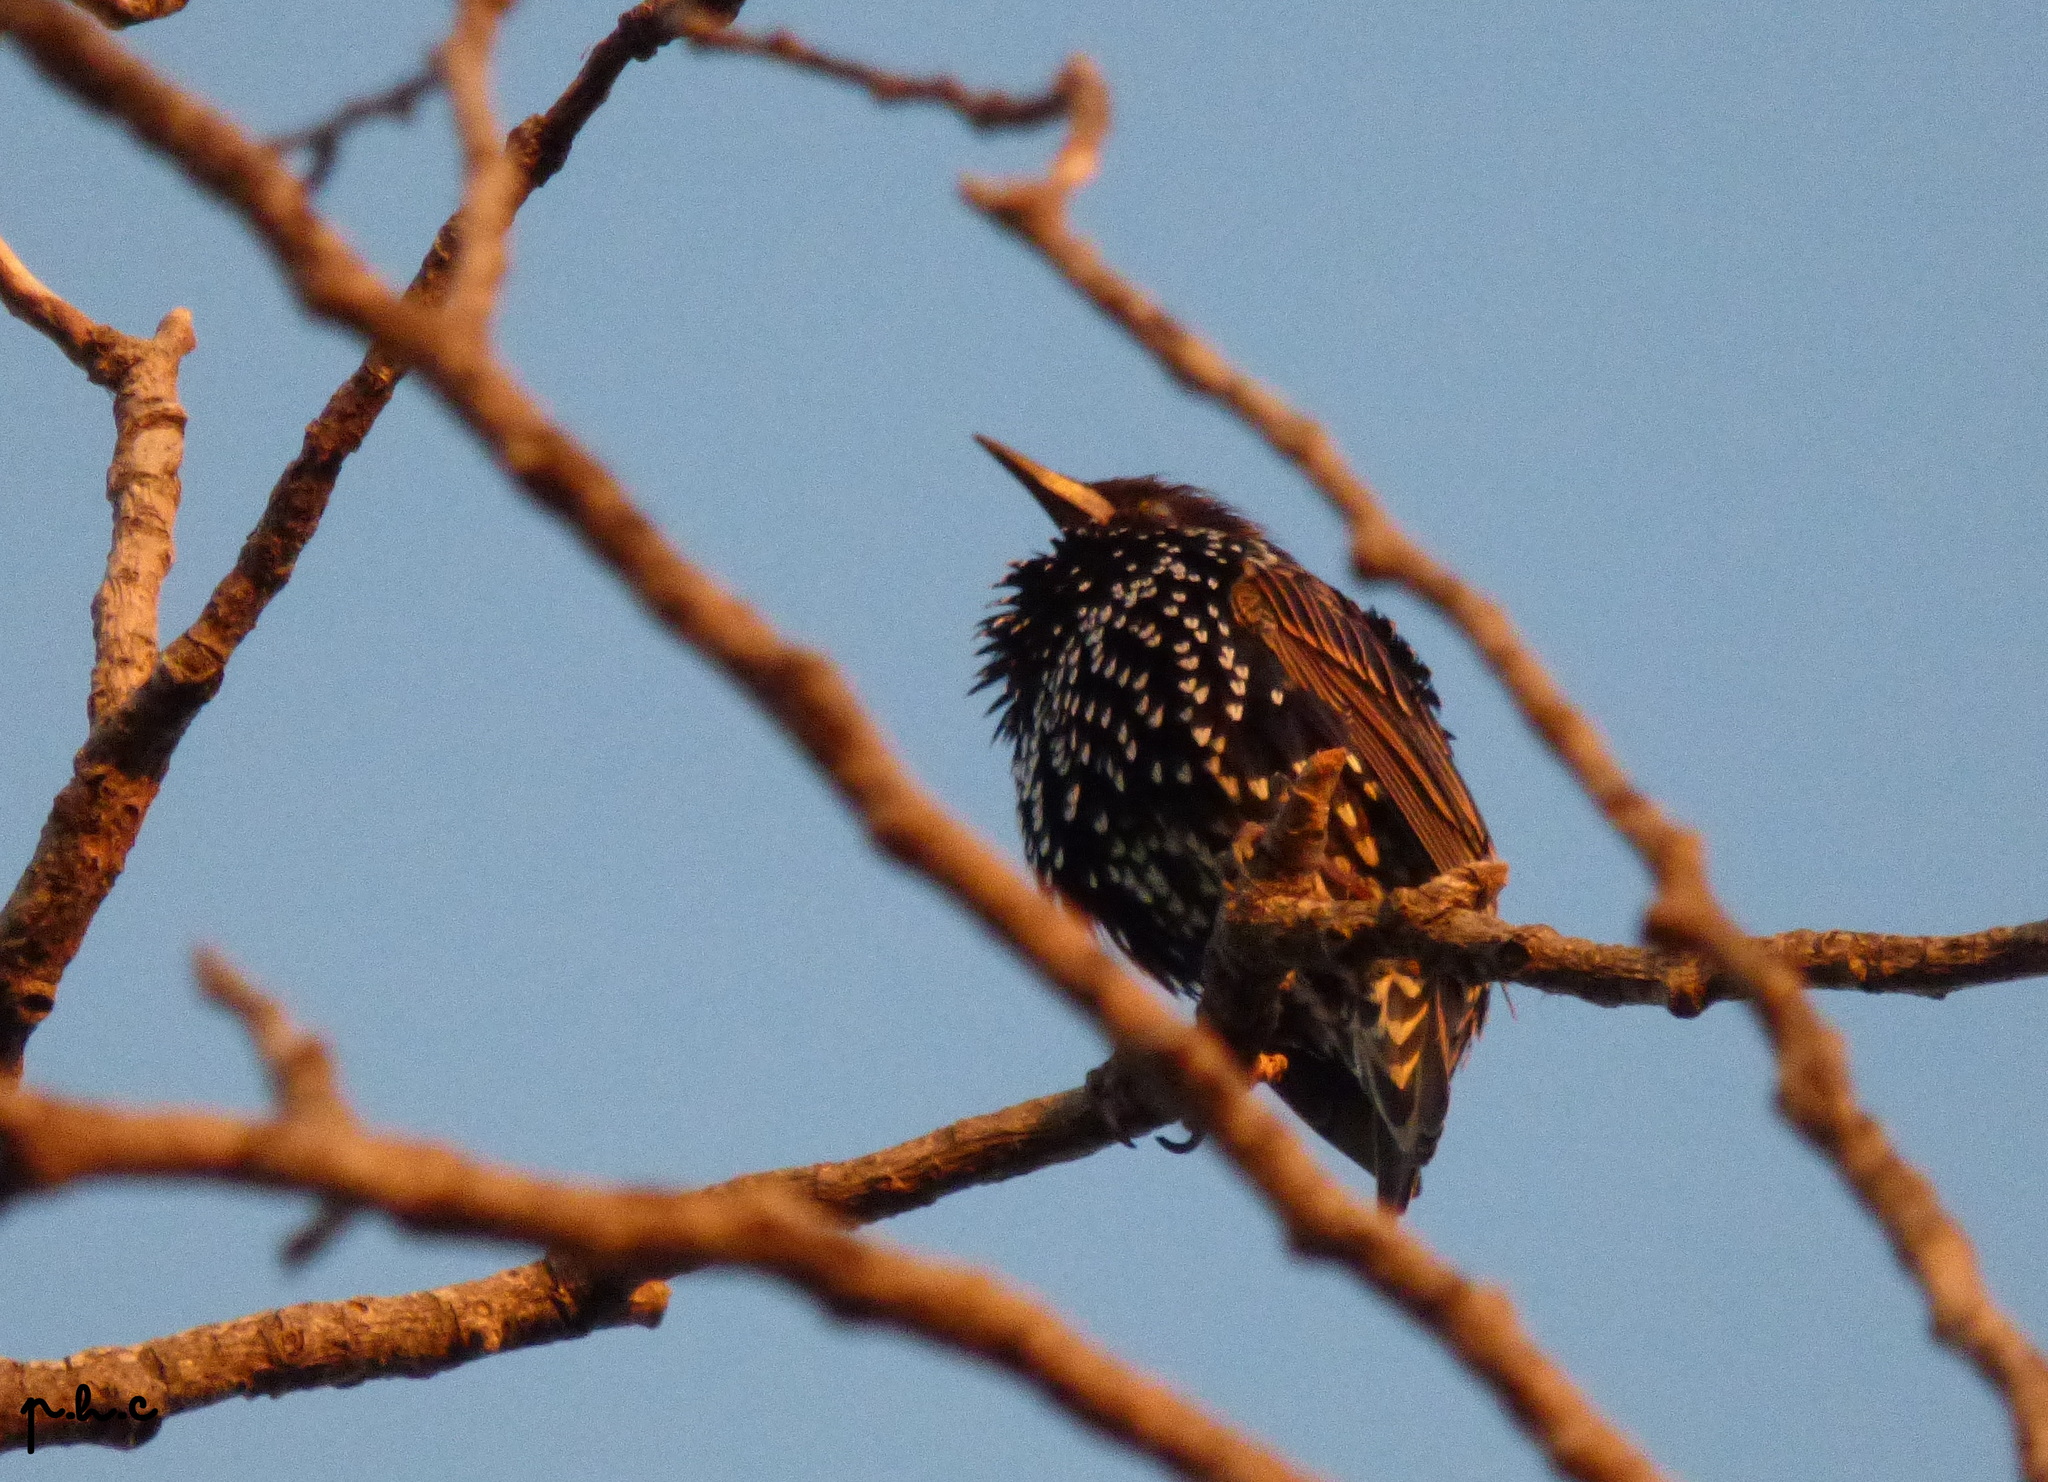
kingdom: Animalia
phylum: Chordata
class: Aves
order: Passeriformes
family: Sturnidae
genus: Sturnus
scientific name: Sturnus vulgaris
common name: Common starling
